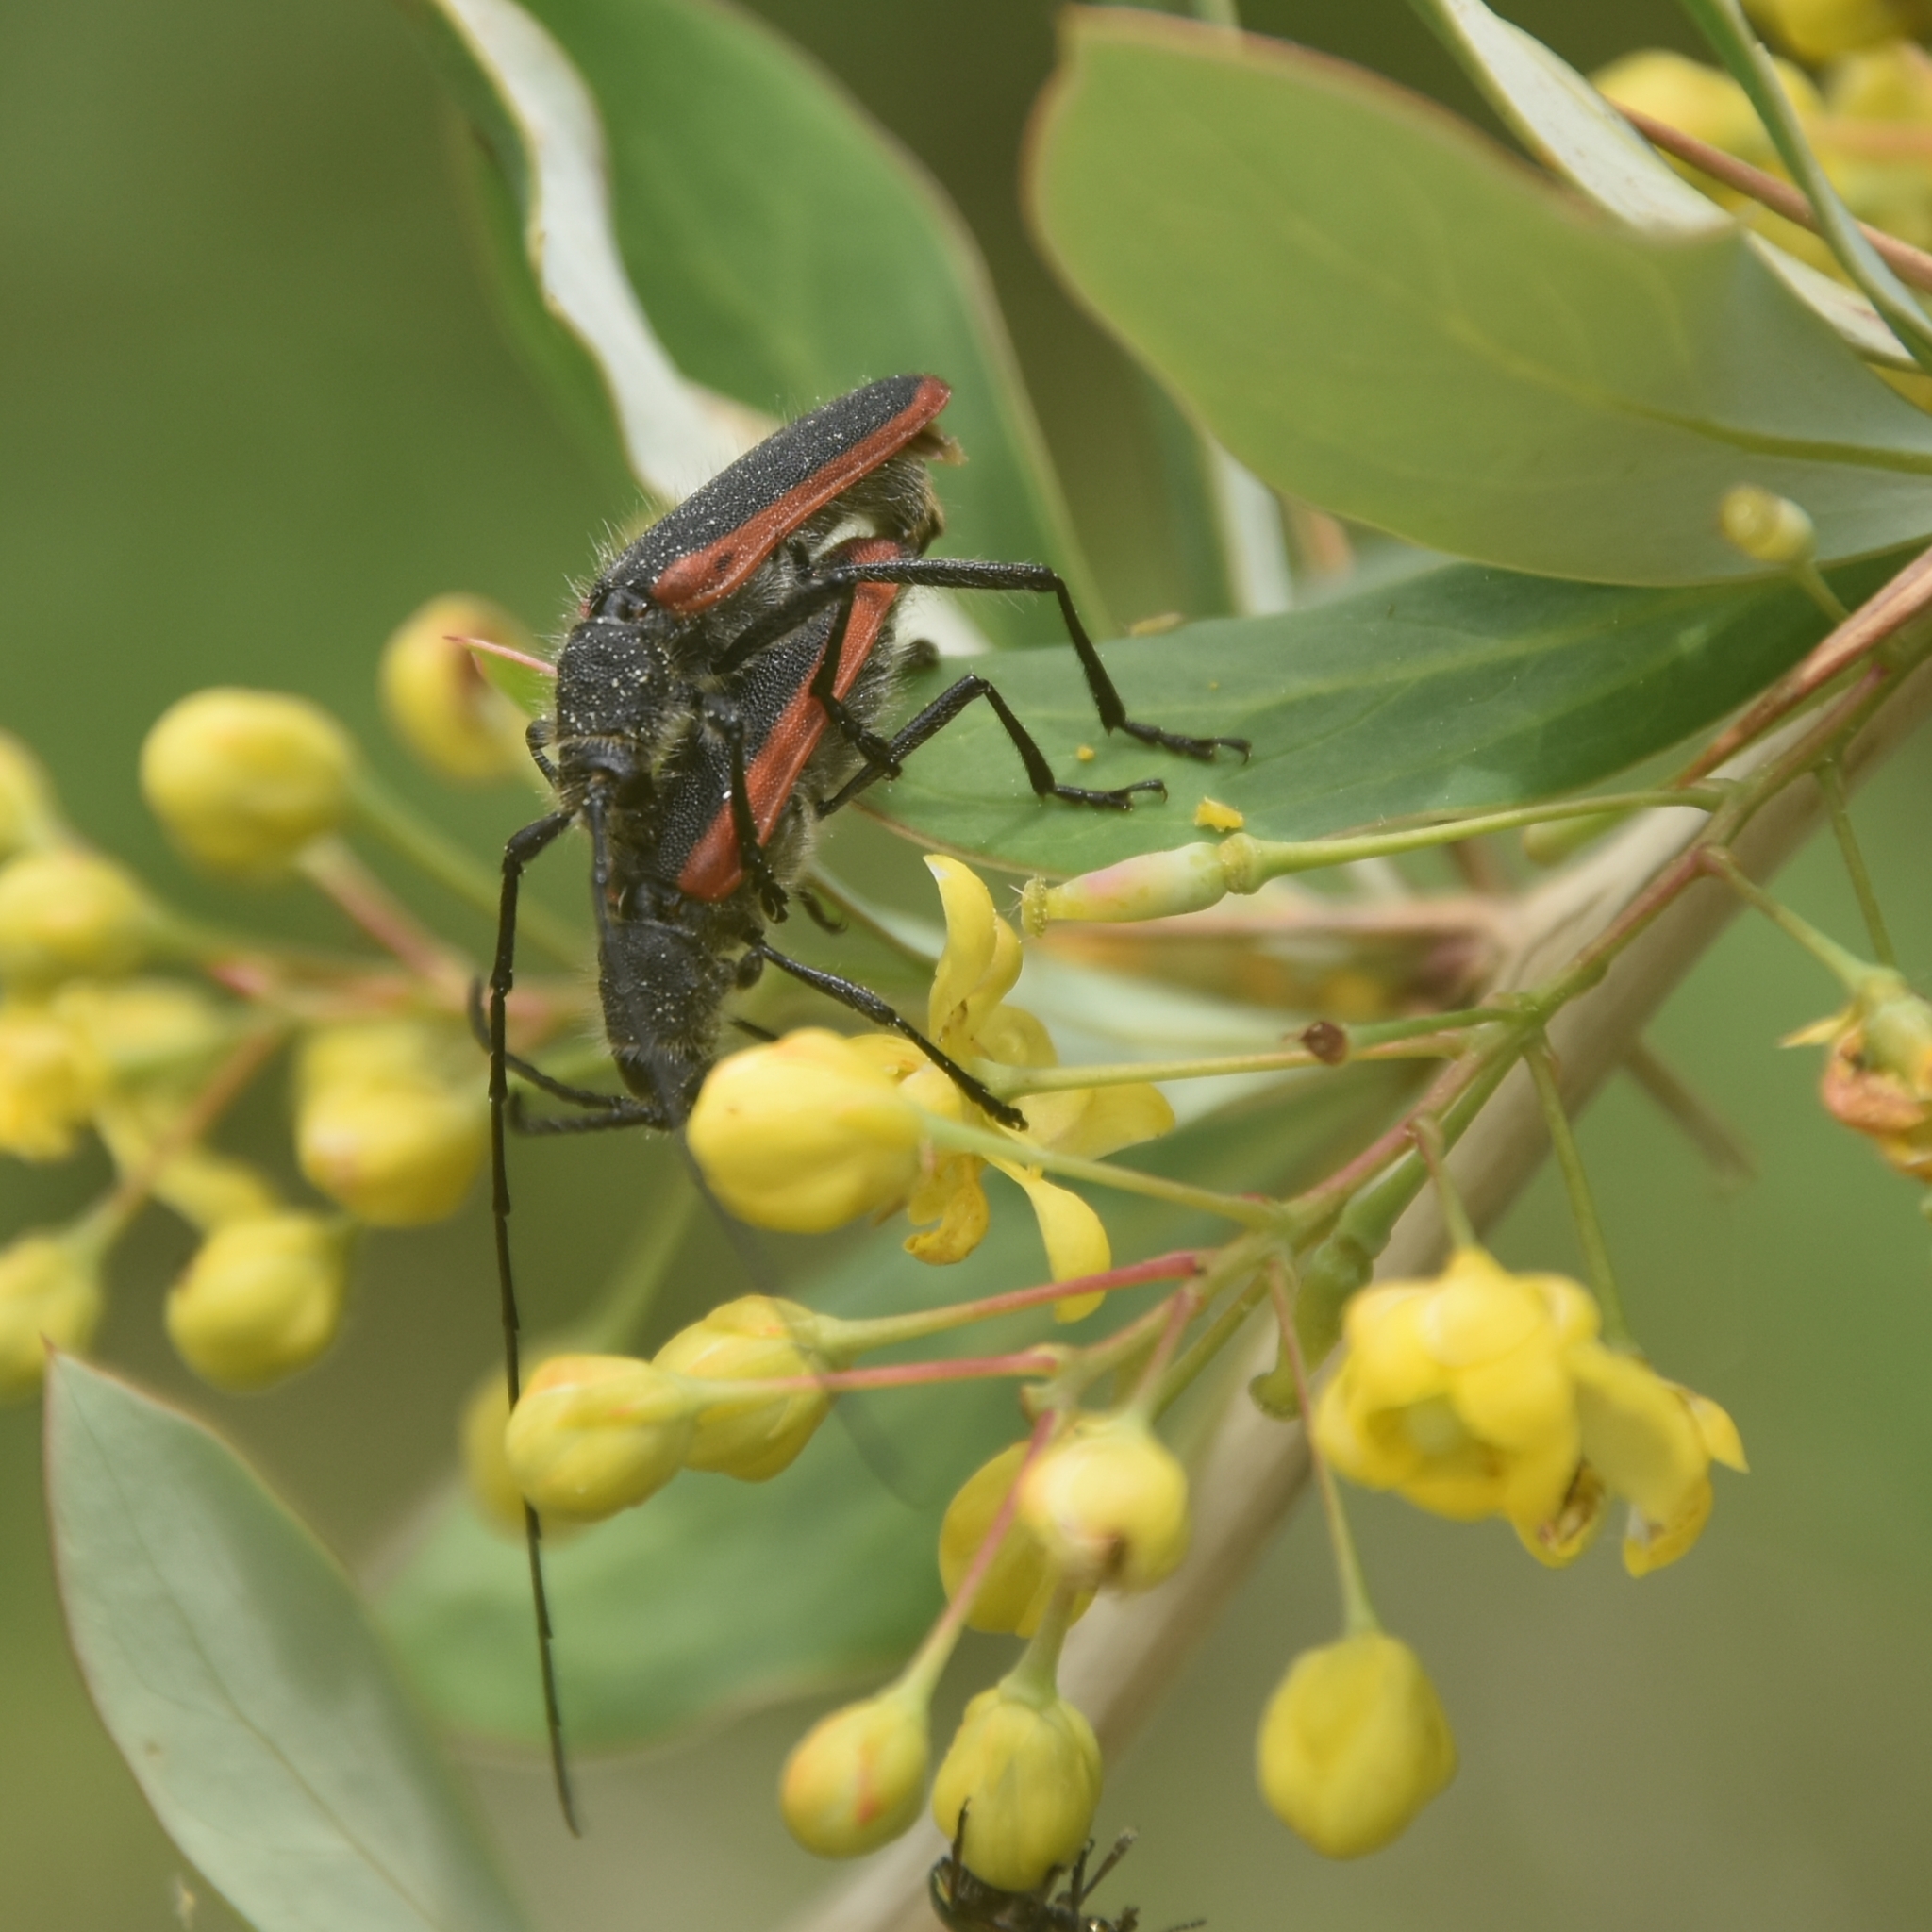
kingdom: Animalia
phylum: Arthropoda
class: Insecta
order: Coleoptera
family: Cerambycidae
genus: Purpuricenus
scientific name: Purpuricenus montanus
